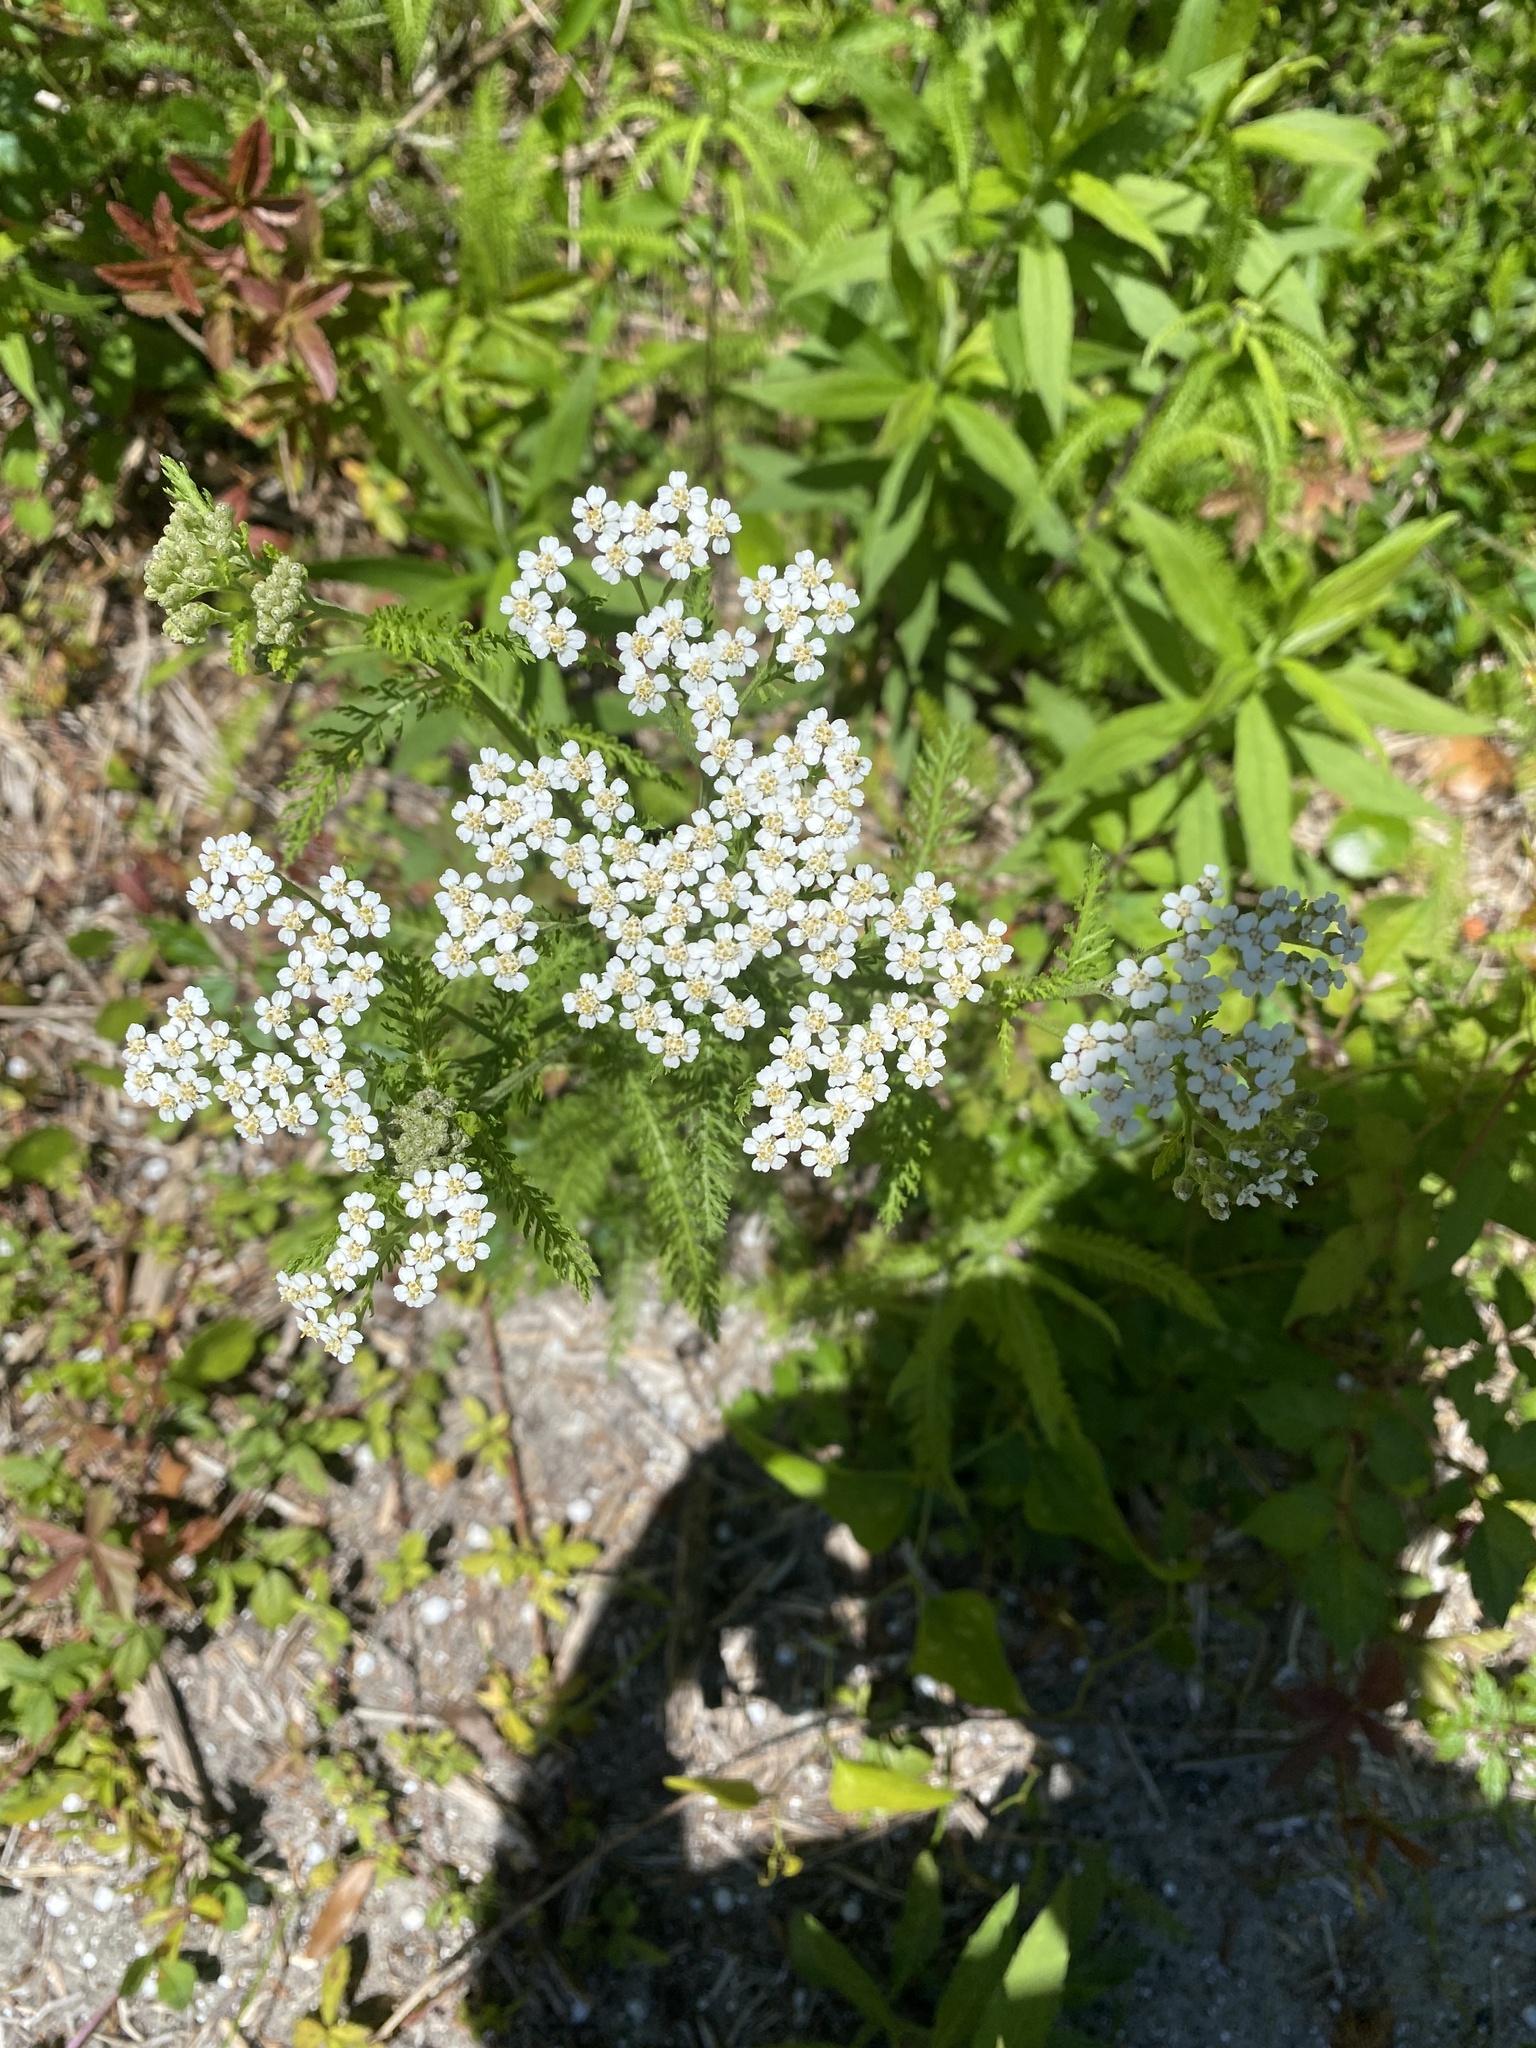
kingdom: Plantae
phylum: Tracheophyta
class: Magnoliopsida
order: Asterales
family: Asteraceae
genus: Achillea
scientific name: Achillea millefolium
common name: Yarrow
